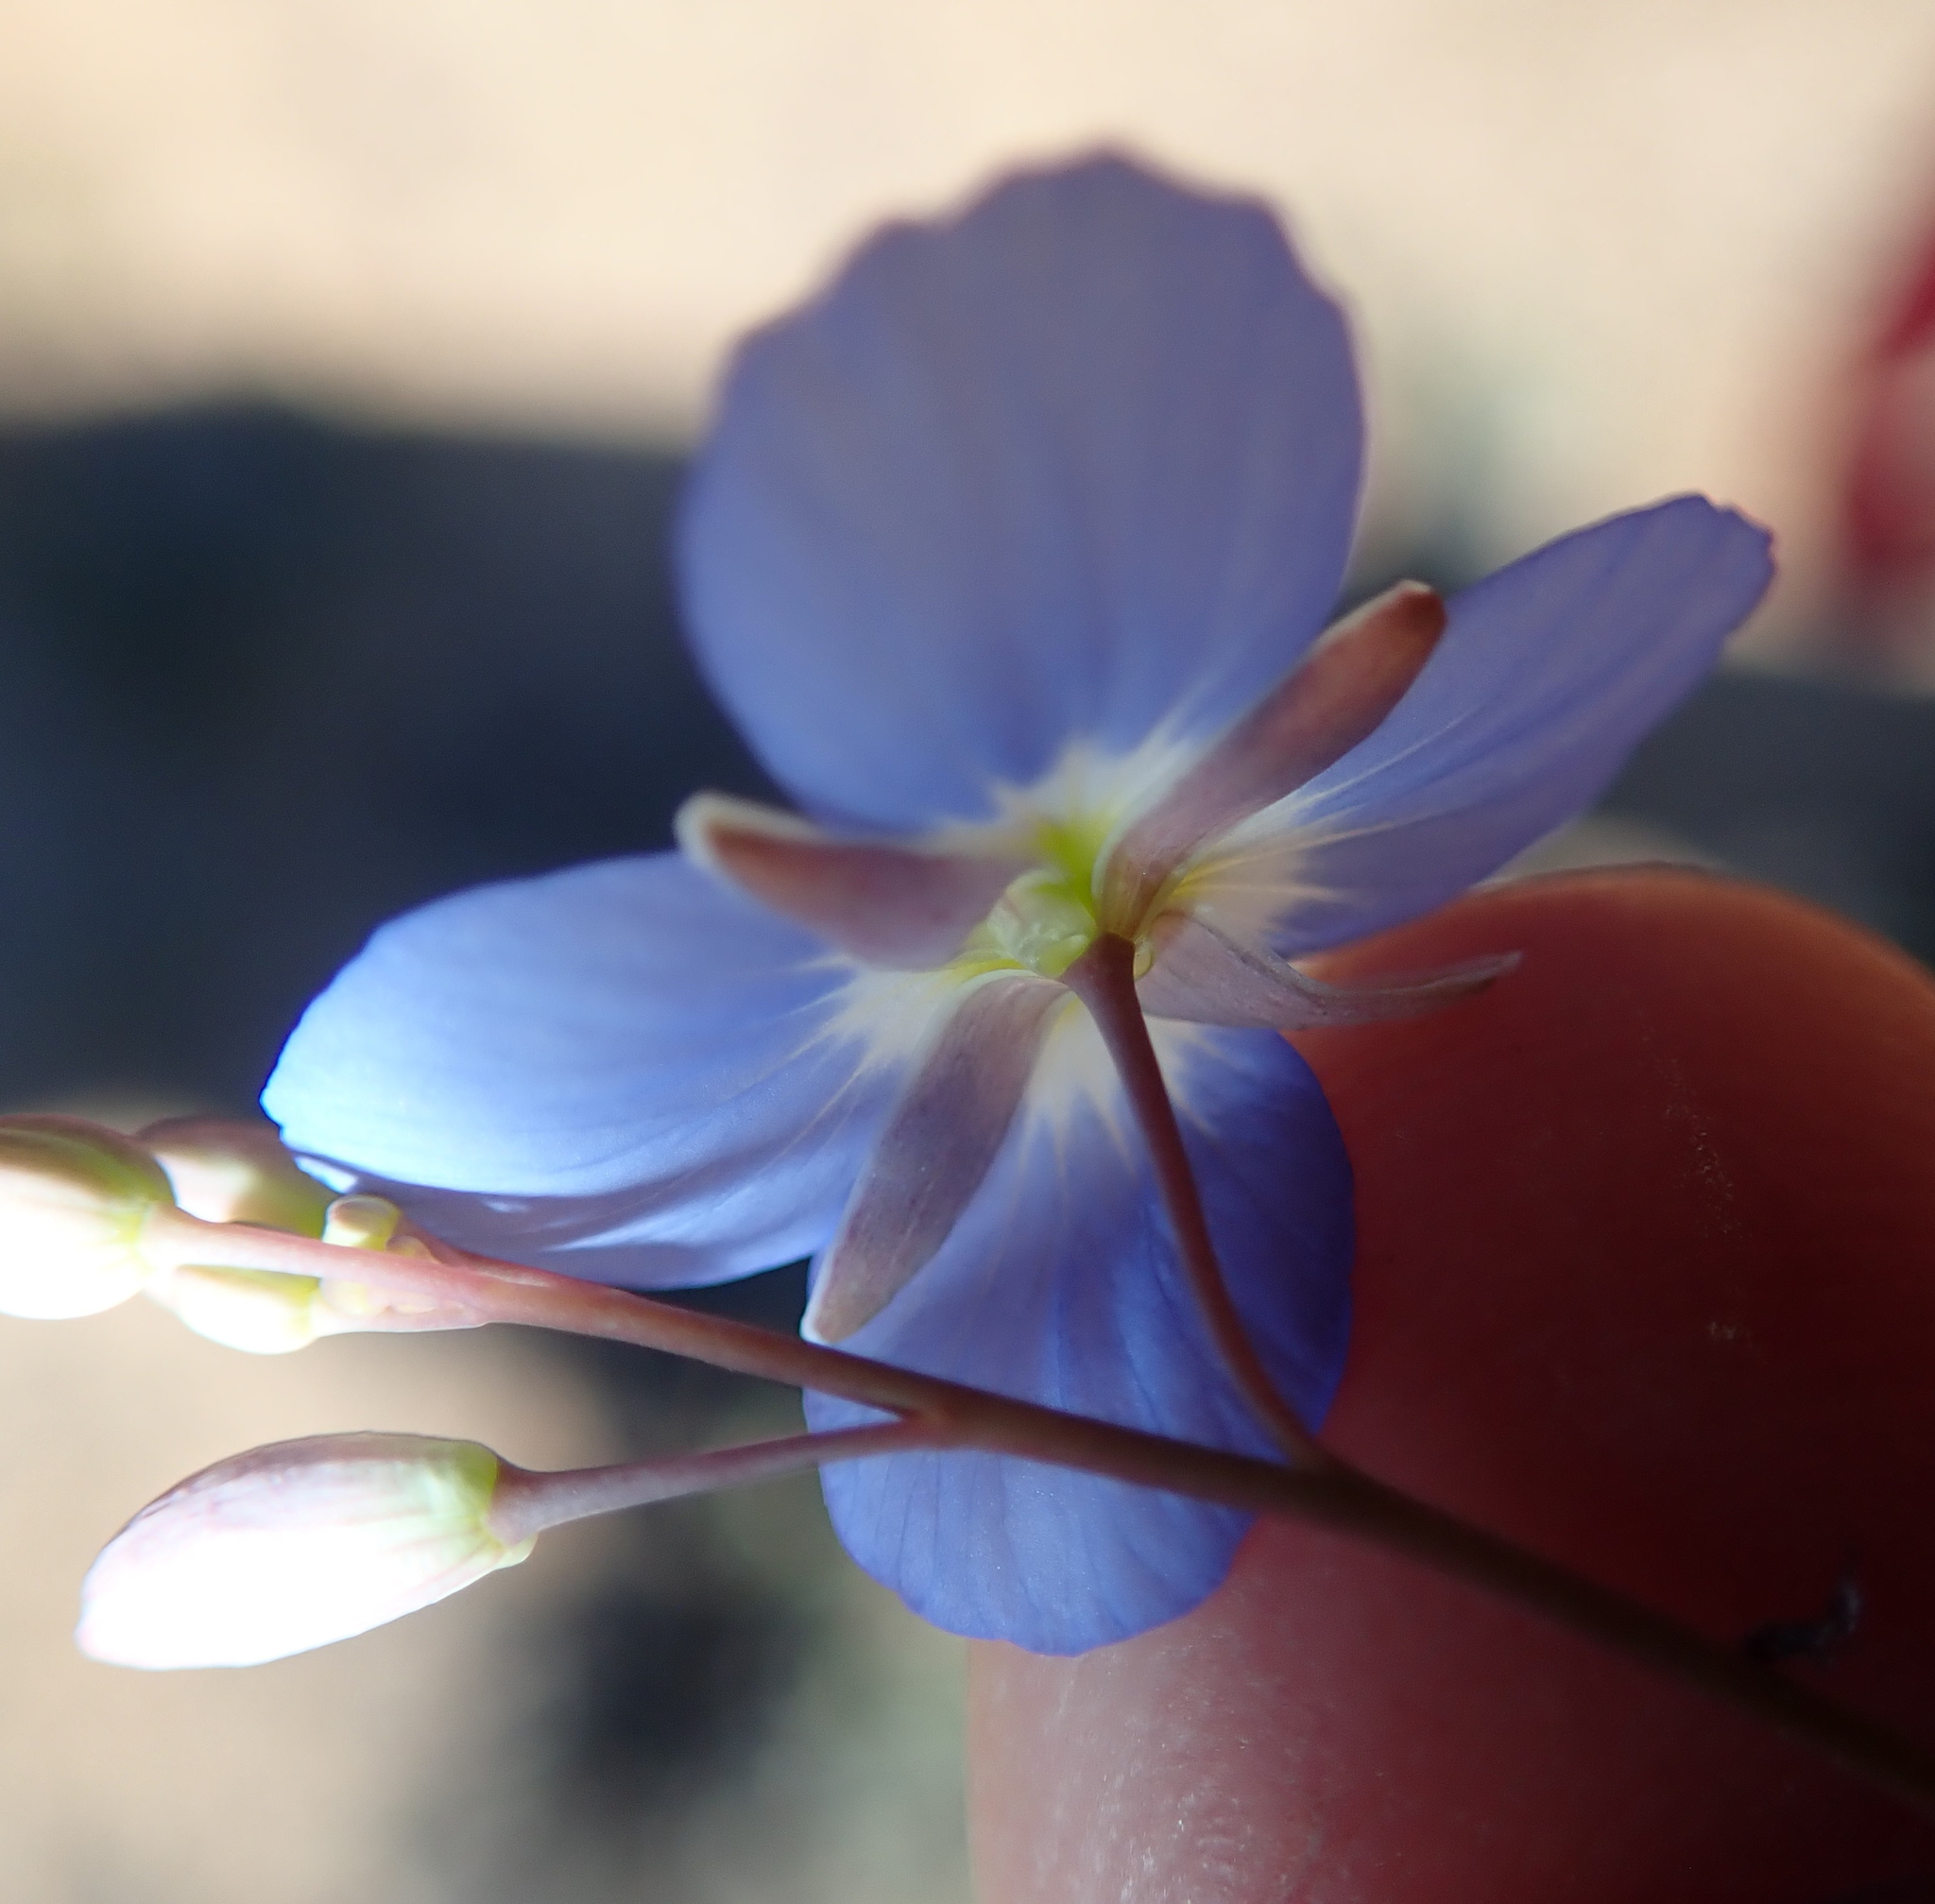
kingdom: Plantae
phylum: Tracheophyta
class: Magnoliopsida
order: Brassicales
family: Brassicaceae
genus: Heliophila
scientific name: Heliophila lactea
